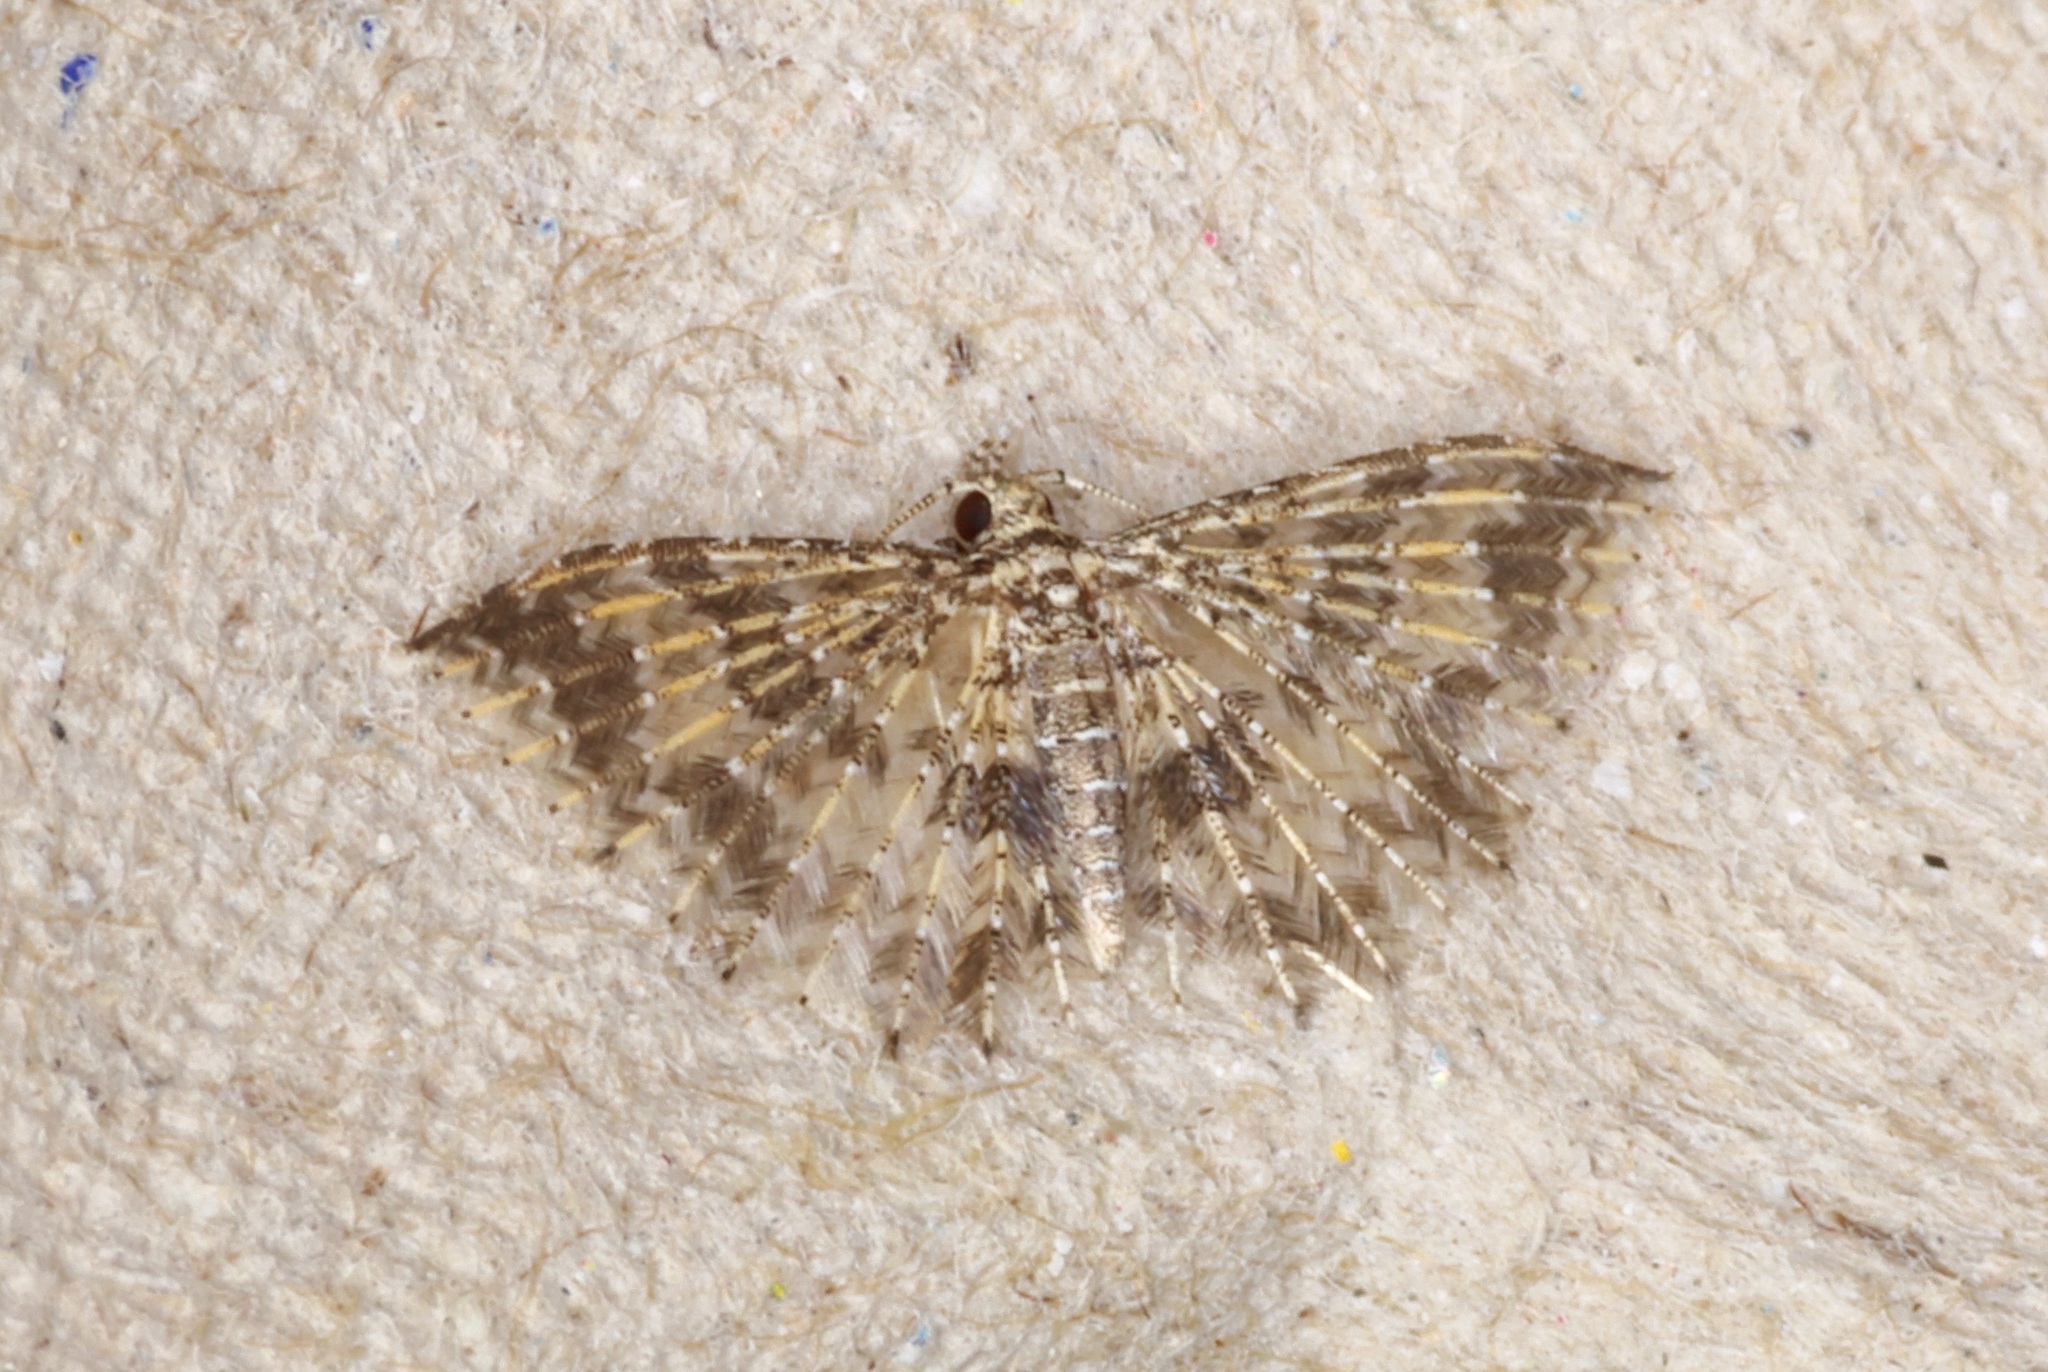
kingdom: Animalia
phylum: Arthropoda
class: Insecta
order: Lepidoptera
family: Alucitidae
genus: Pterotopteryx
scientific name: Pterotopteryx spilodesma
